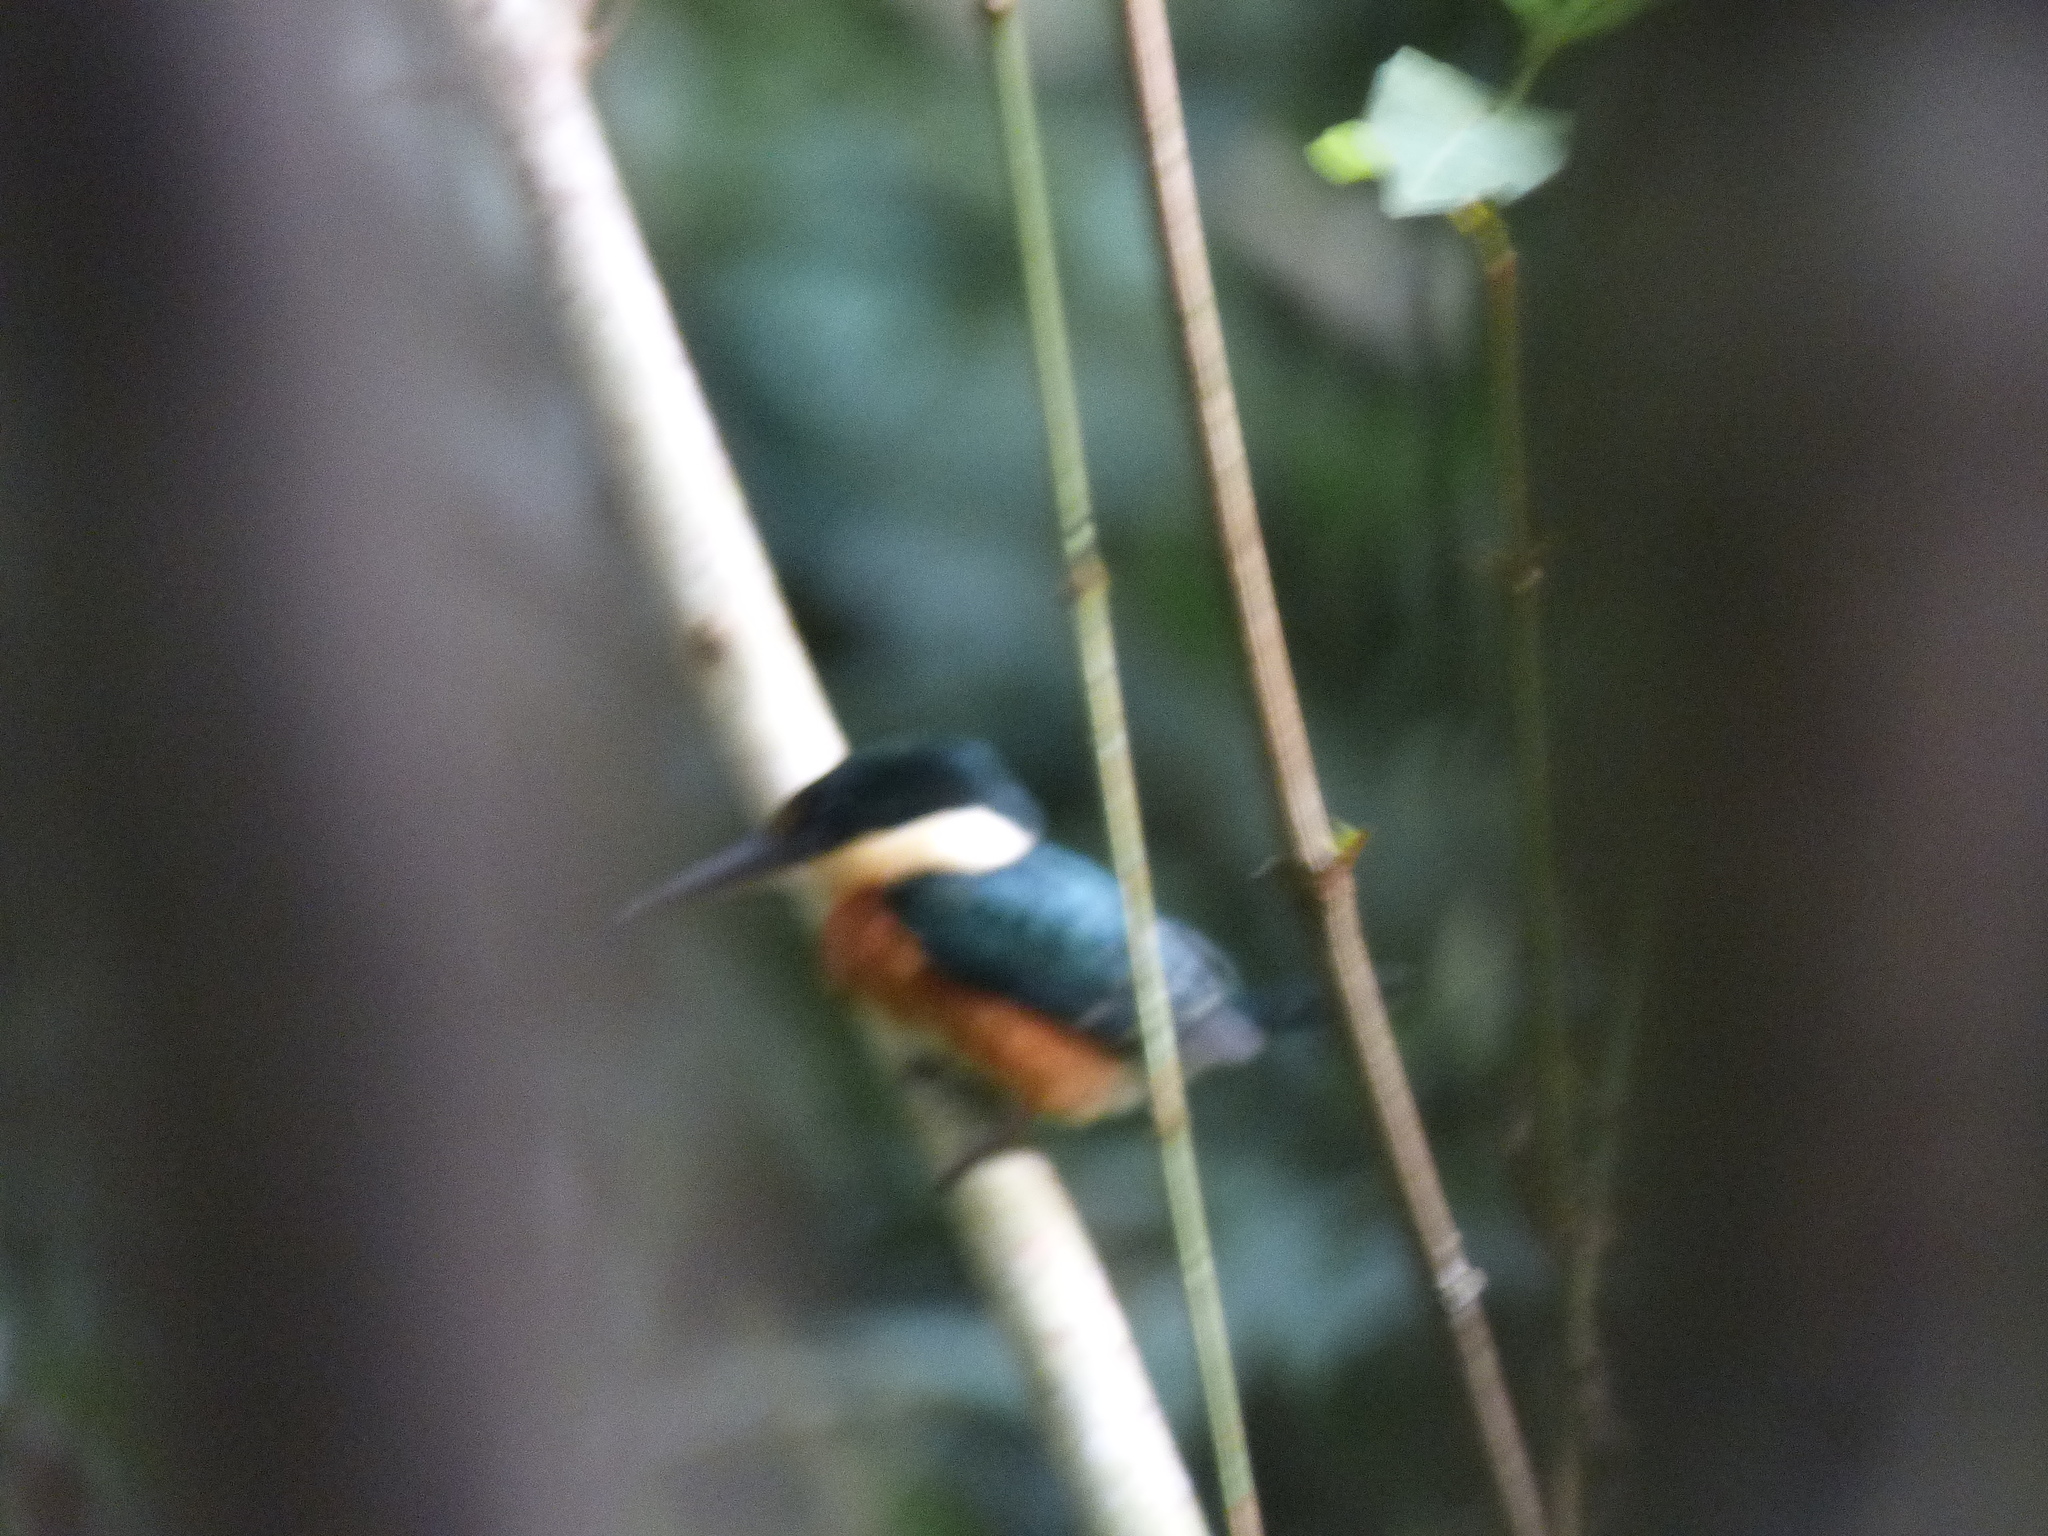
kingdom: Animalia
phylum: Chordata
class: Aves
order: Coraciiformes
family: Alcedinidae
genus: Chloroceryle
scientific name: Chloroceryle aenea
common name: American pygmy kingfisher
